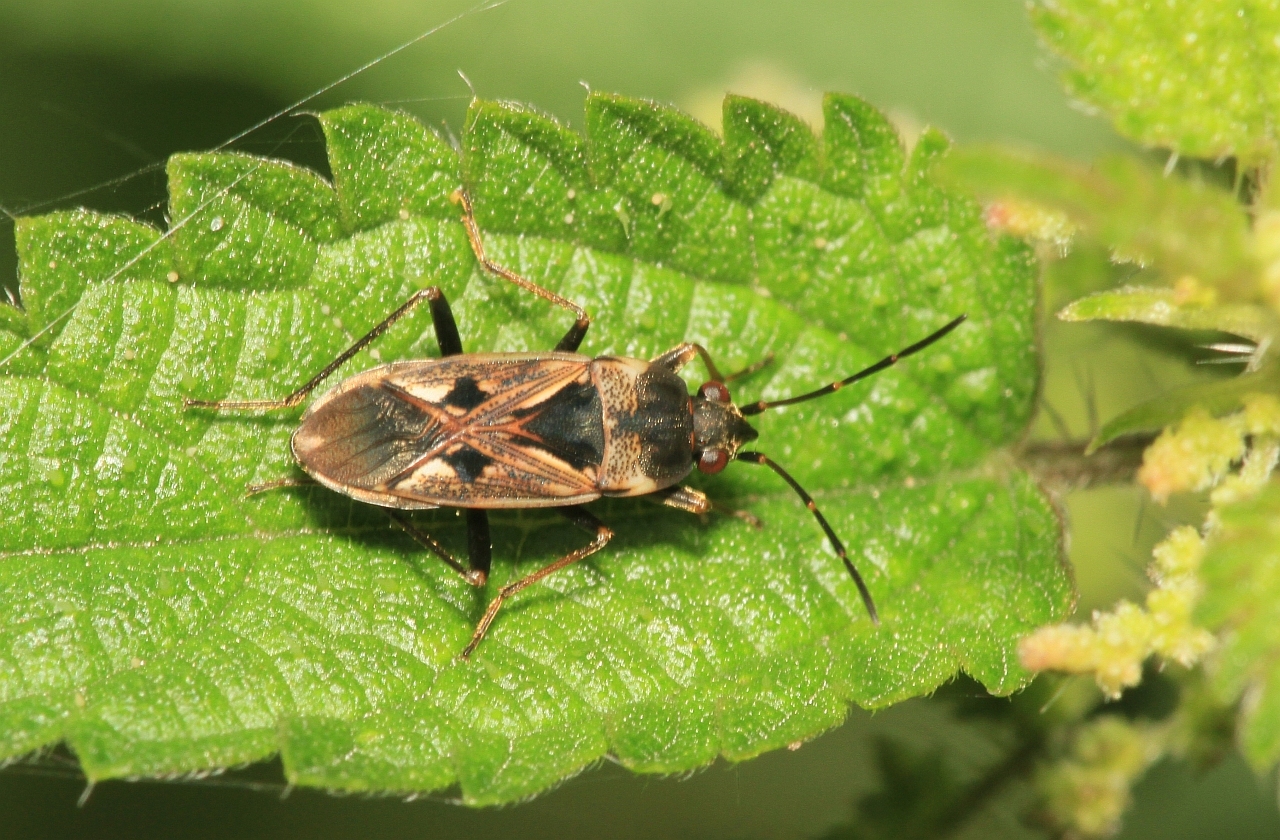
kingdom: Animalia
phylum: Arthropoda
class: Insecta
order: Hemiptera
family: Rhyparochromidae
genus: Rhyparochromus
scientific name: Rhyparochromus vulgaris
